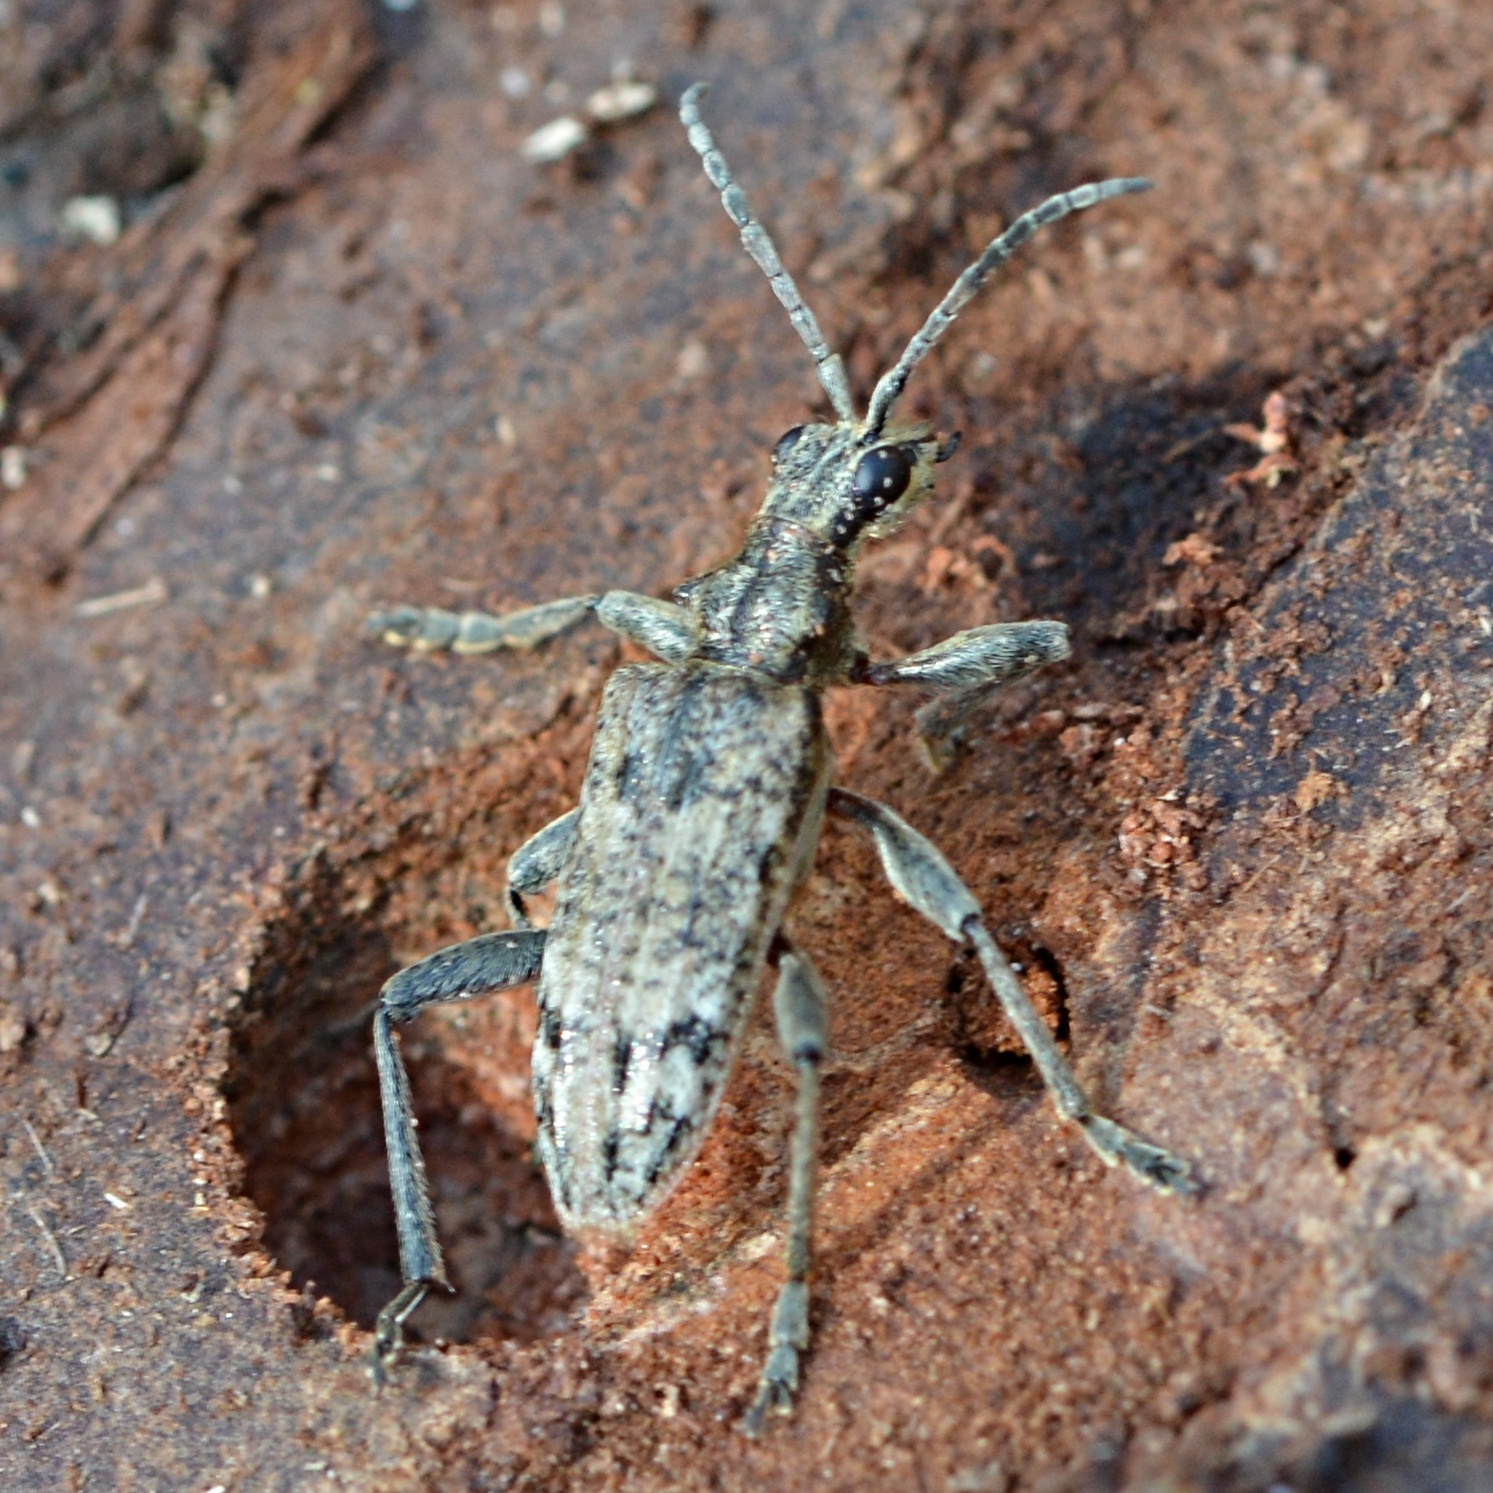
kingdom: Animalia
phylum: Arthropoda
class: Insecta
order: Coleoptera
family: Cerambycidae
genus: Rhagium
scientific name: Rhagium inquisitor
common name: Ribbed pine borer
